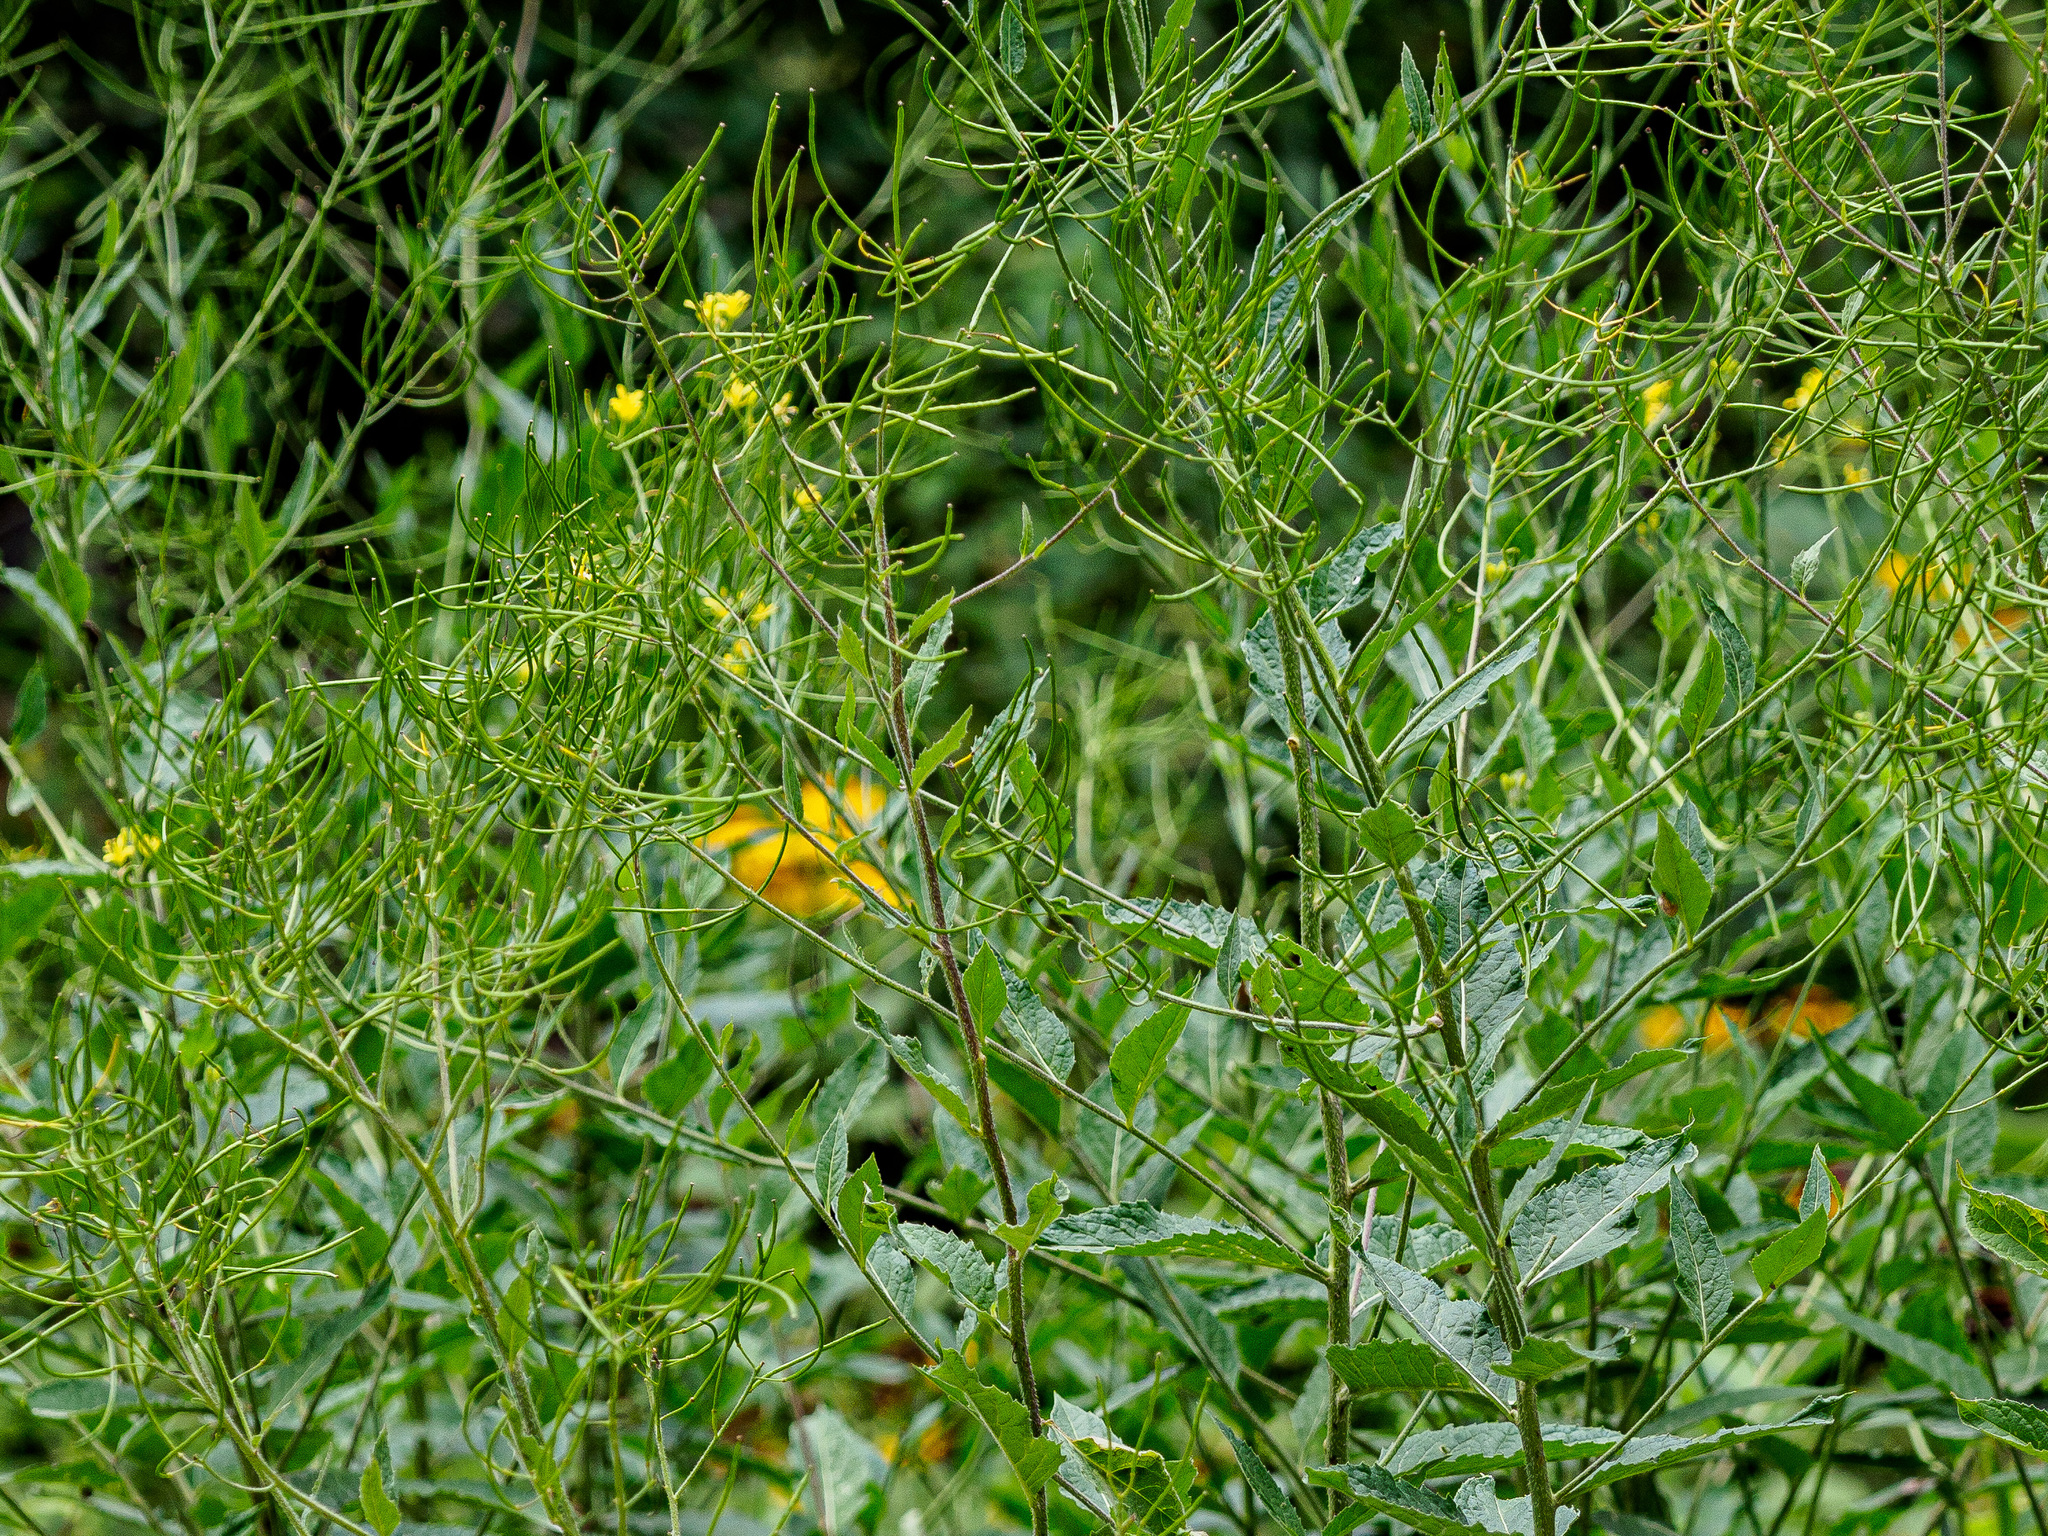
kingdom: Plantae
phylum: Tracheophyta
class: Magnoliopsida
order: Brassicales
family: Brassicaceae
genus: Sisymbrium
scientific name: Sisymbrium strictissimum
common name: Perennial rocket
